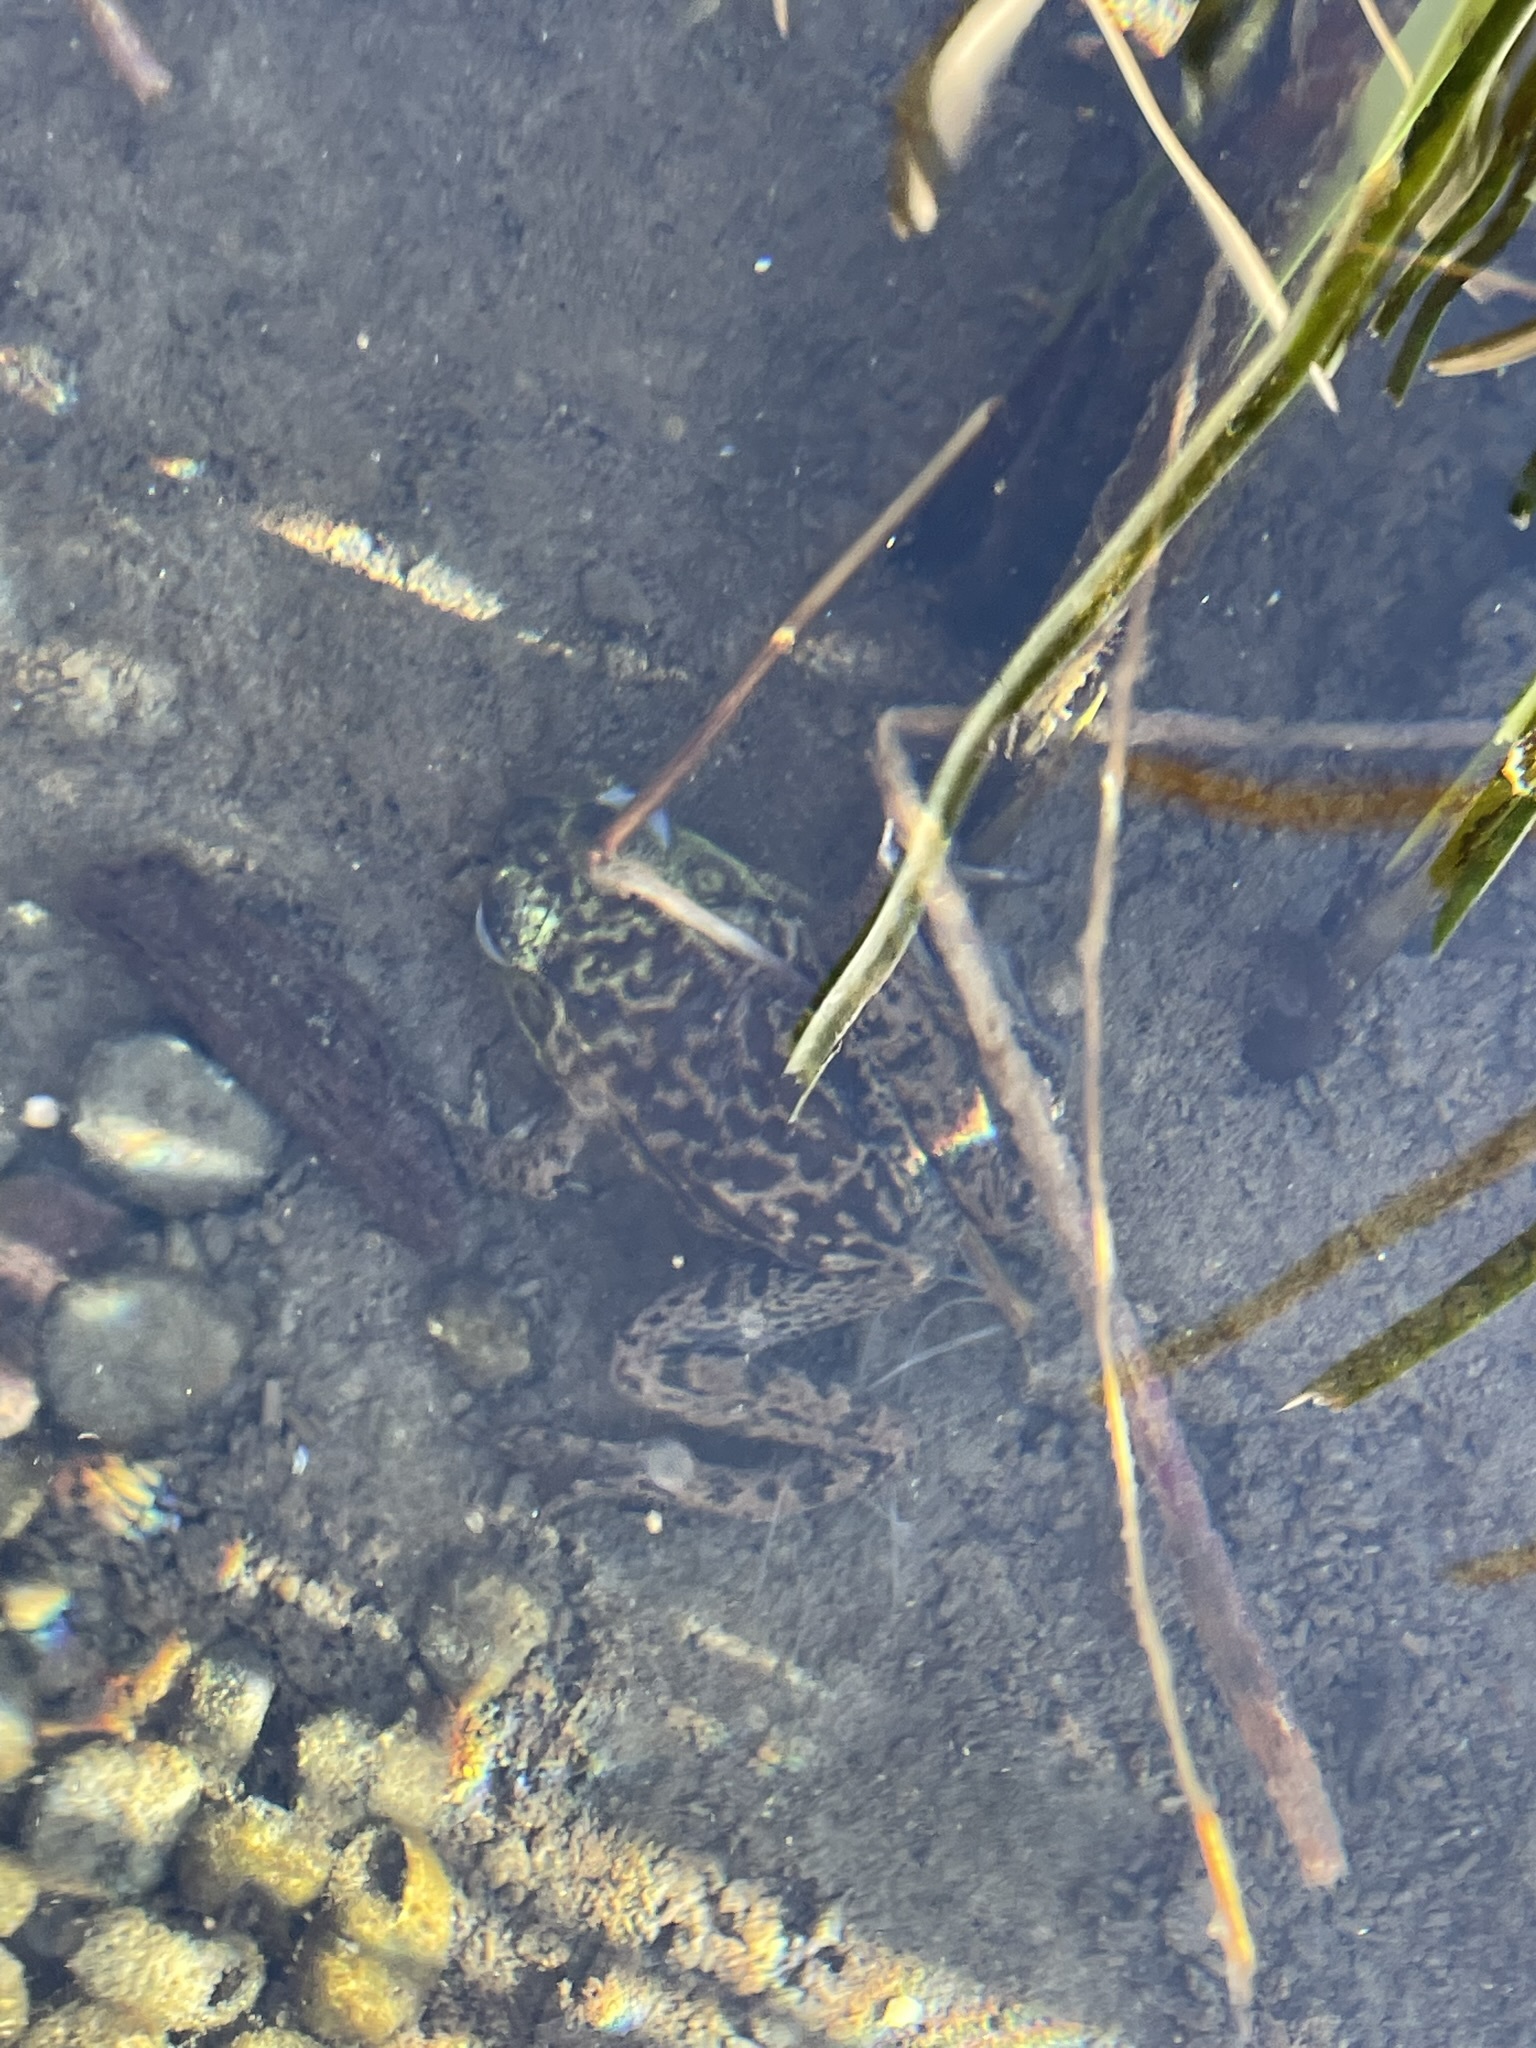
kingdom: Animalia
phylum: Chordata
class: Amphibia
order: Anura
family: Ranidae
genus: Lithobates
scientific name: Lithobates catesbeianus
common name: American bullfrog
